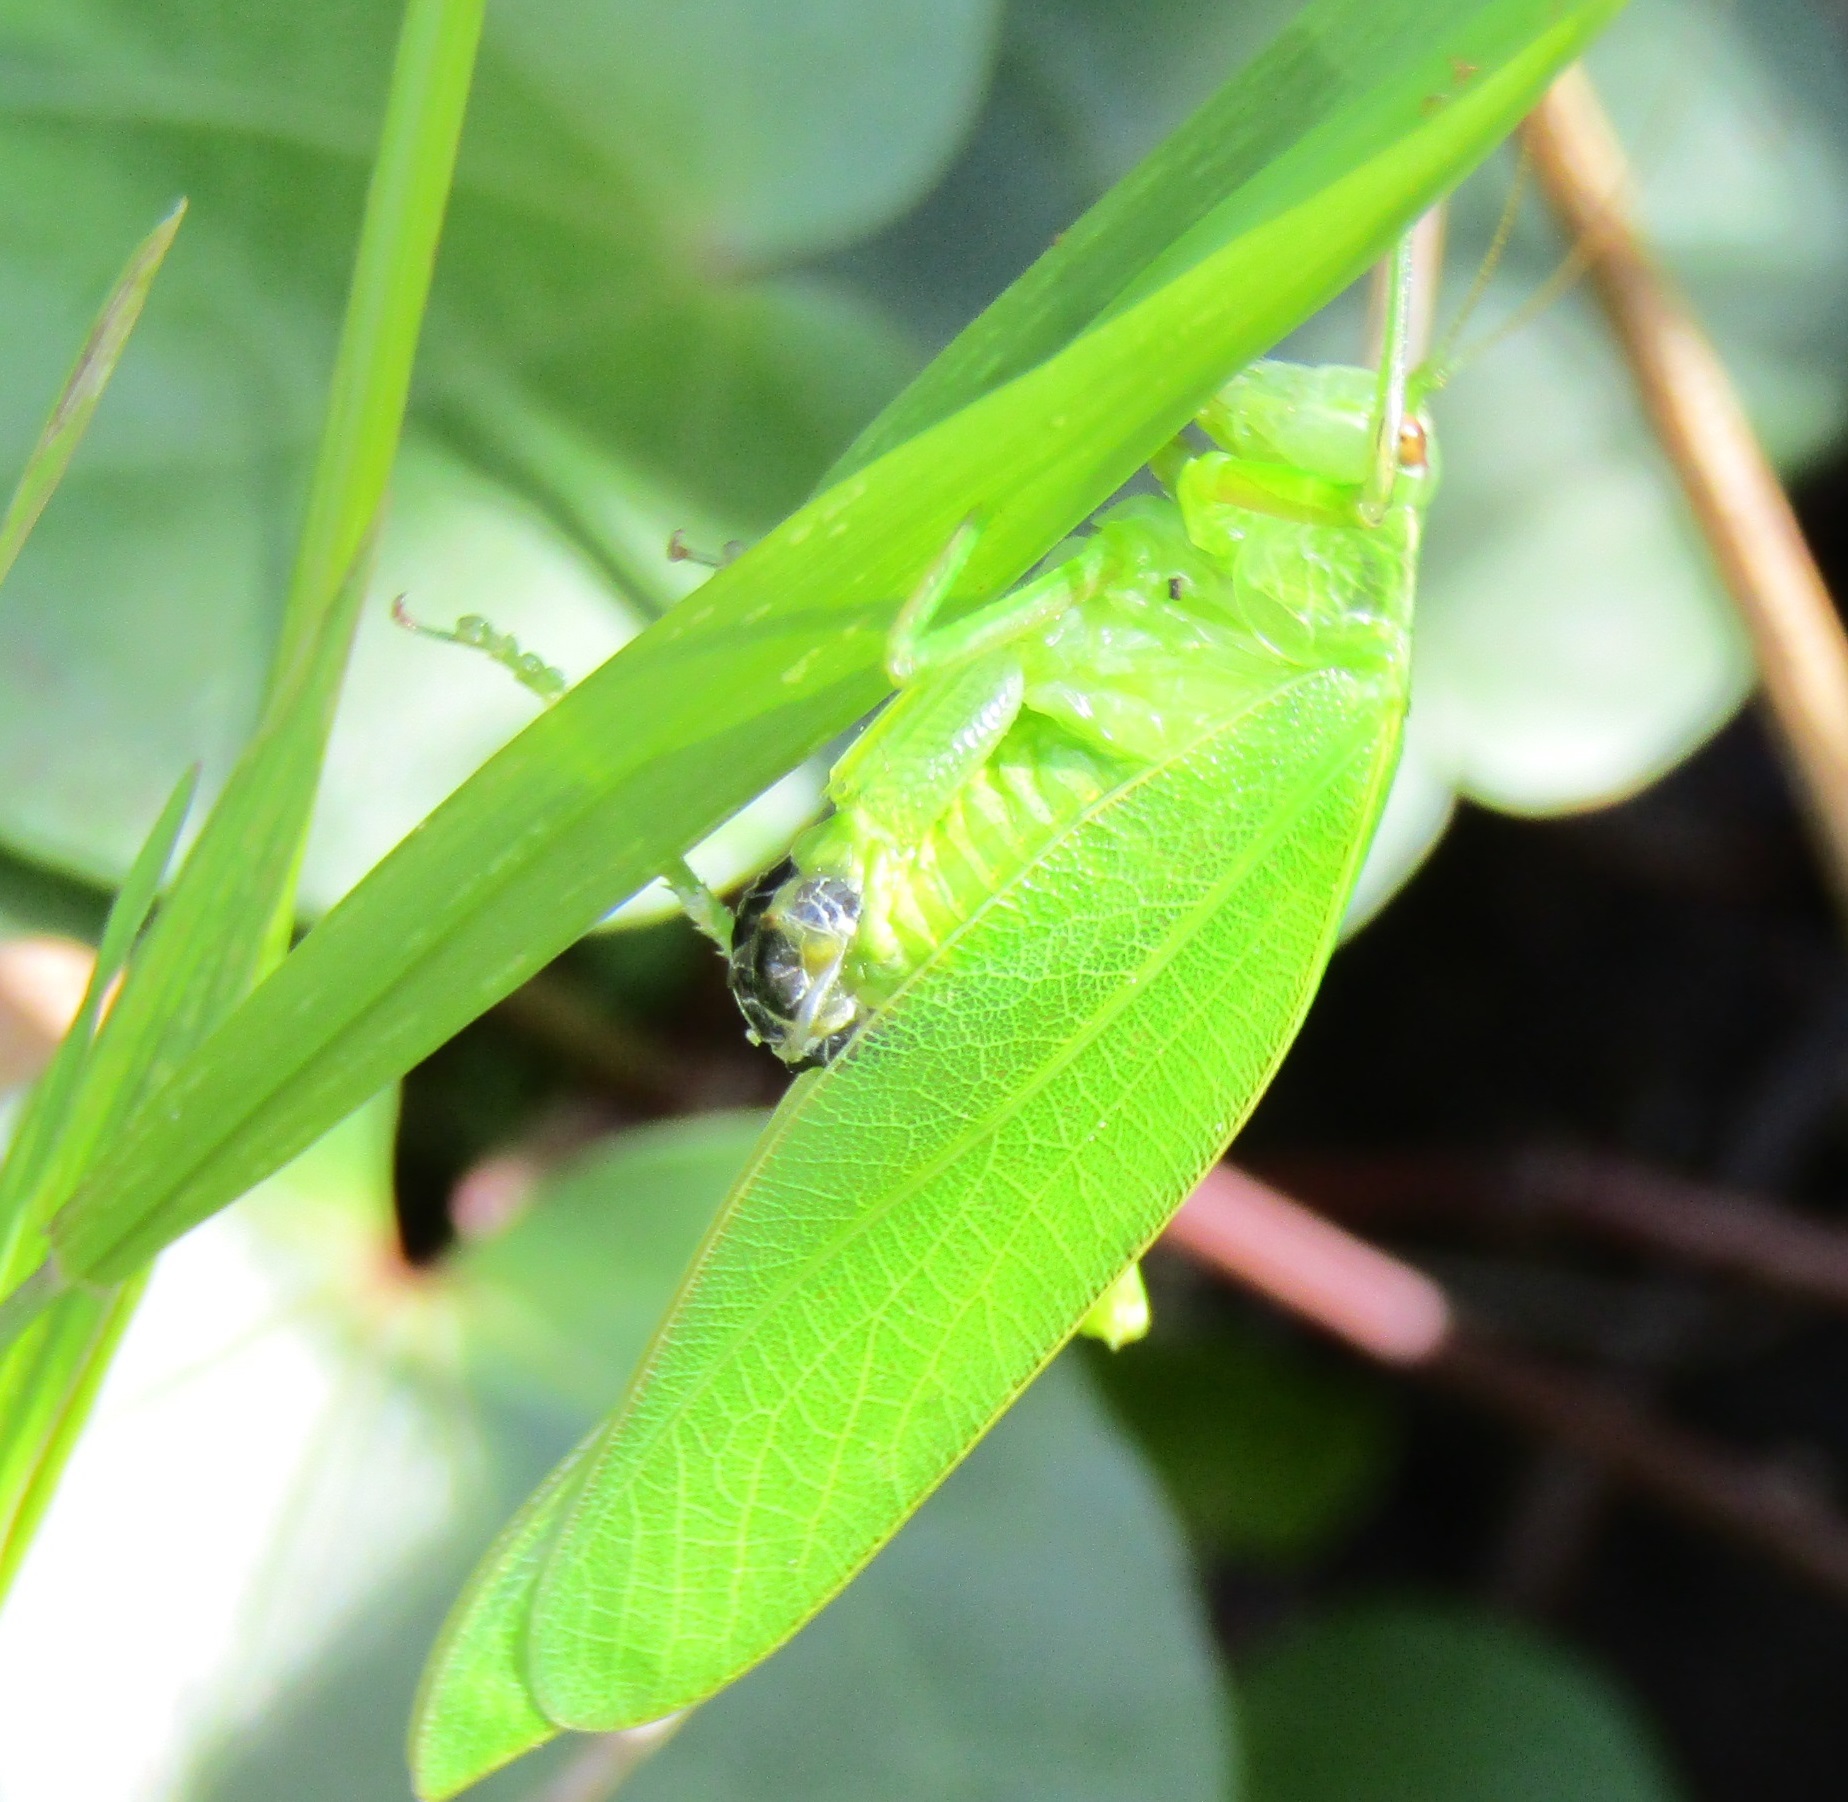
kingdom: Animalia
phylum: Arthropoda
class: Insecta
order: Orthoptera
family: Tettigoniidae
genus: Caedicia
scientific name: Caedicia simplex
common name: Common garden katydid
